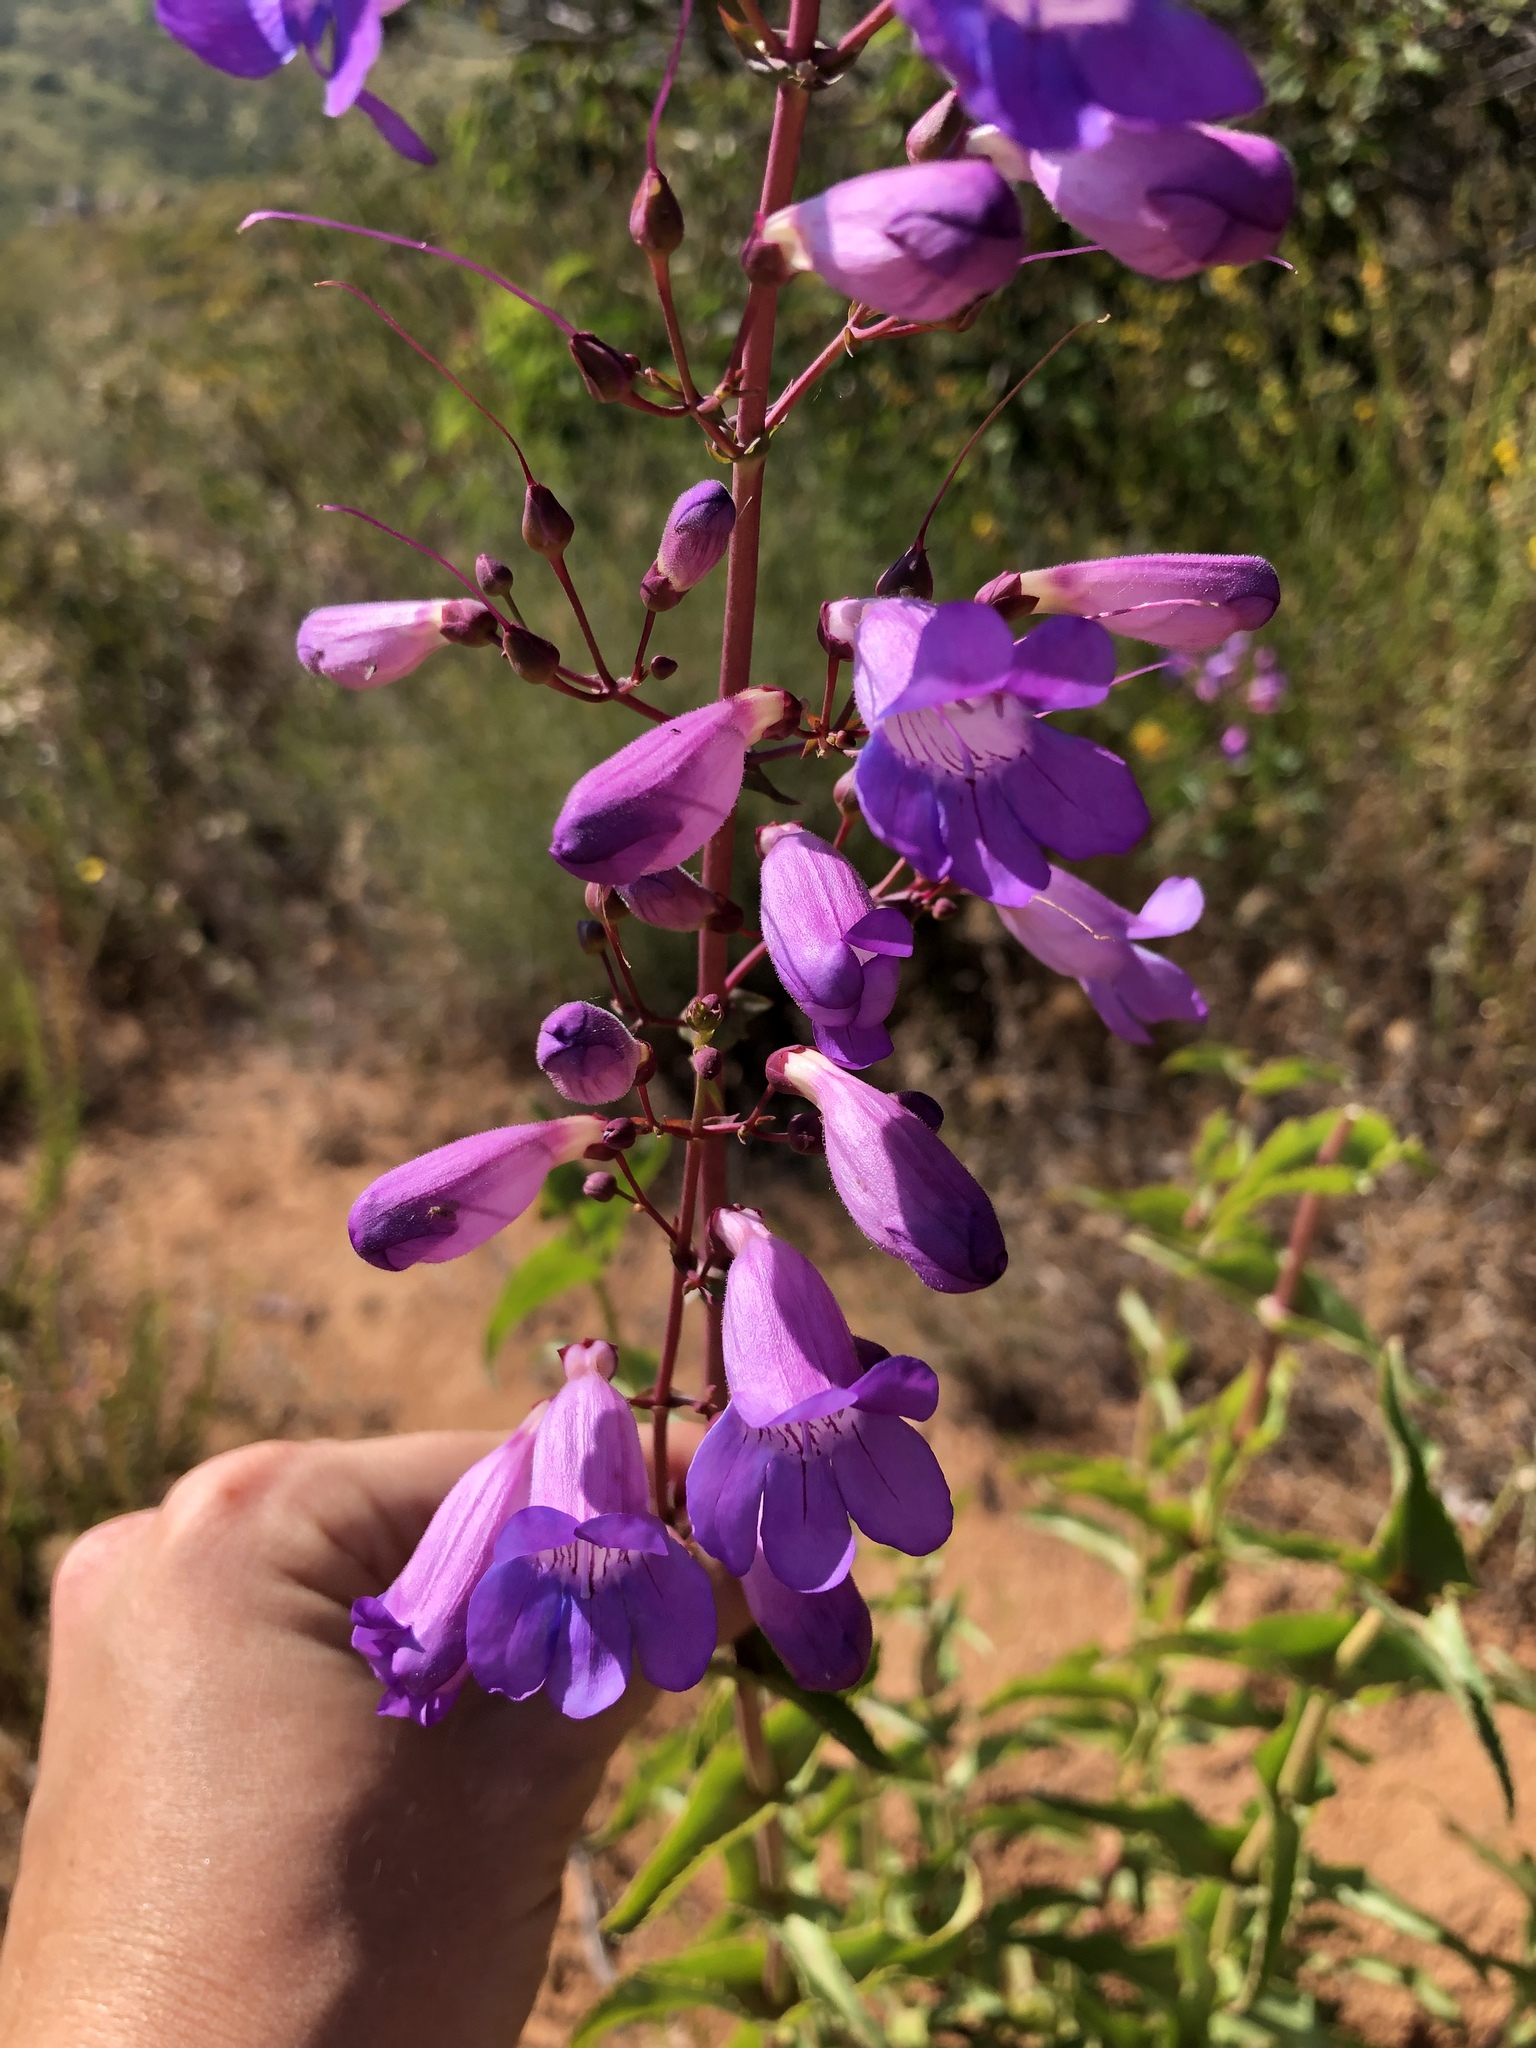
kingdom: Plantae
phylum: Tracheophyta
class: Magnoliopsida
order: Lamiales
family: Plantaginaceae
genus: Penstemon
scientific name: Penstemon spectabilis
